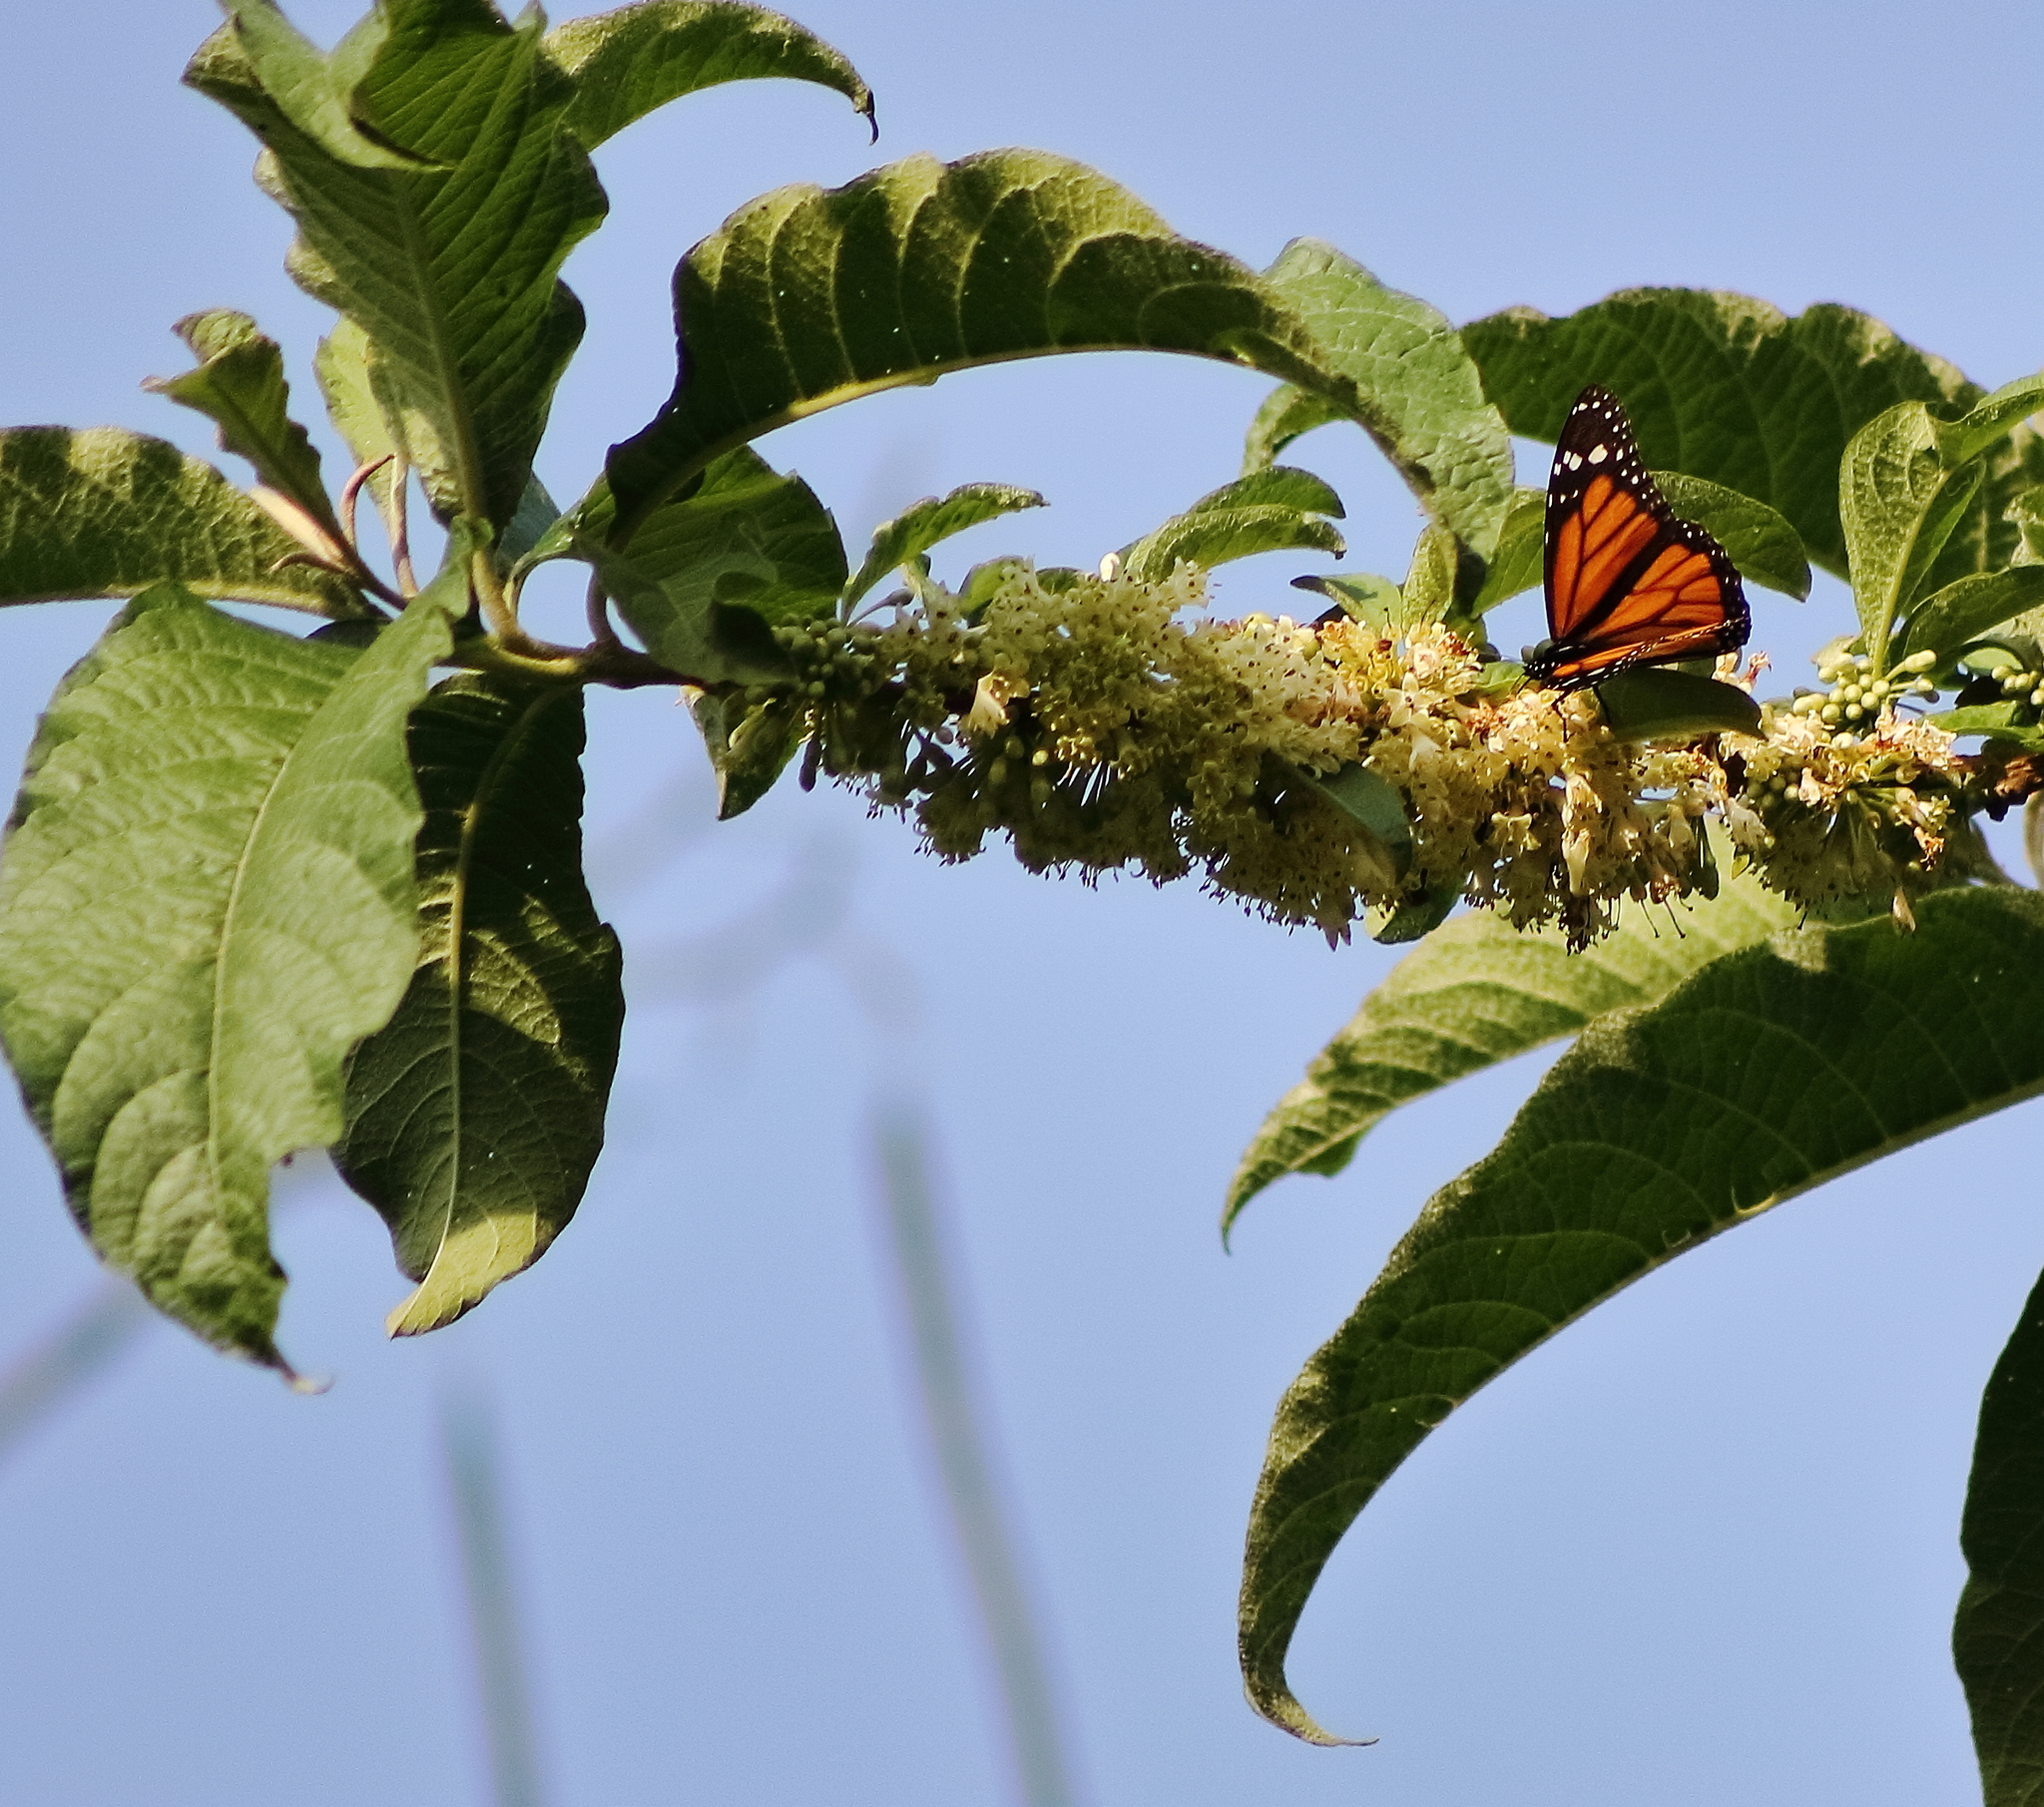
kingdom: Animalia
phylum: Arthropoda
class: Insecta
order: Lepidoptera
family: Nymphalidae
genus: Danaus
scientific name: Danaus plexippus
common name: Monarch
